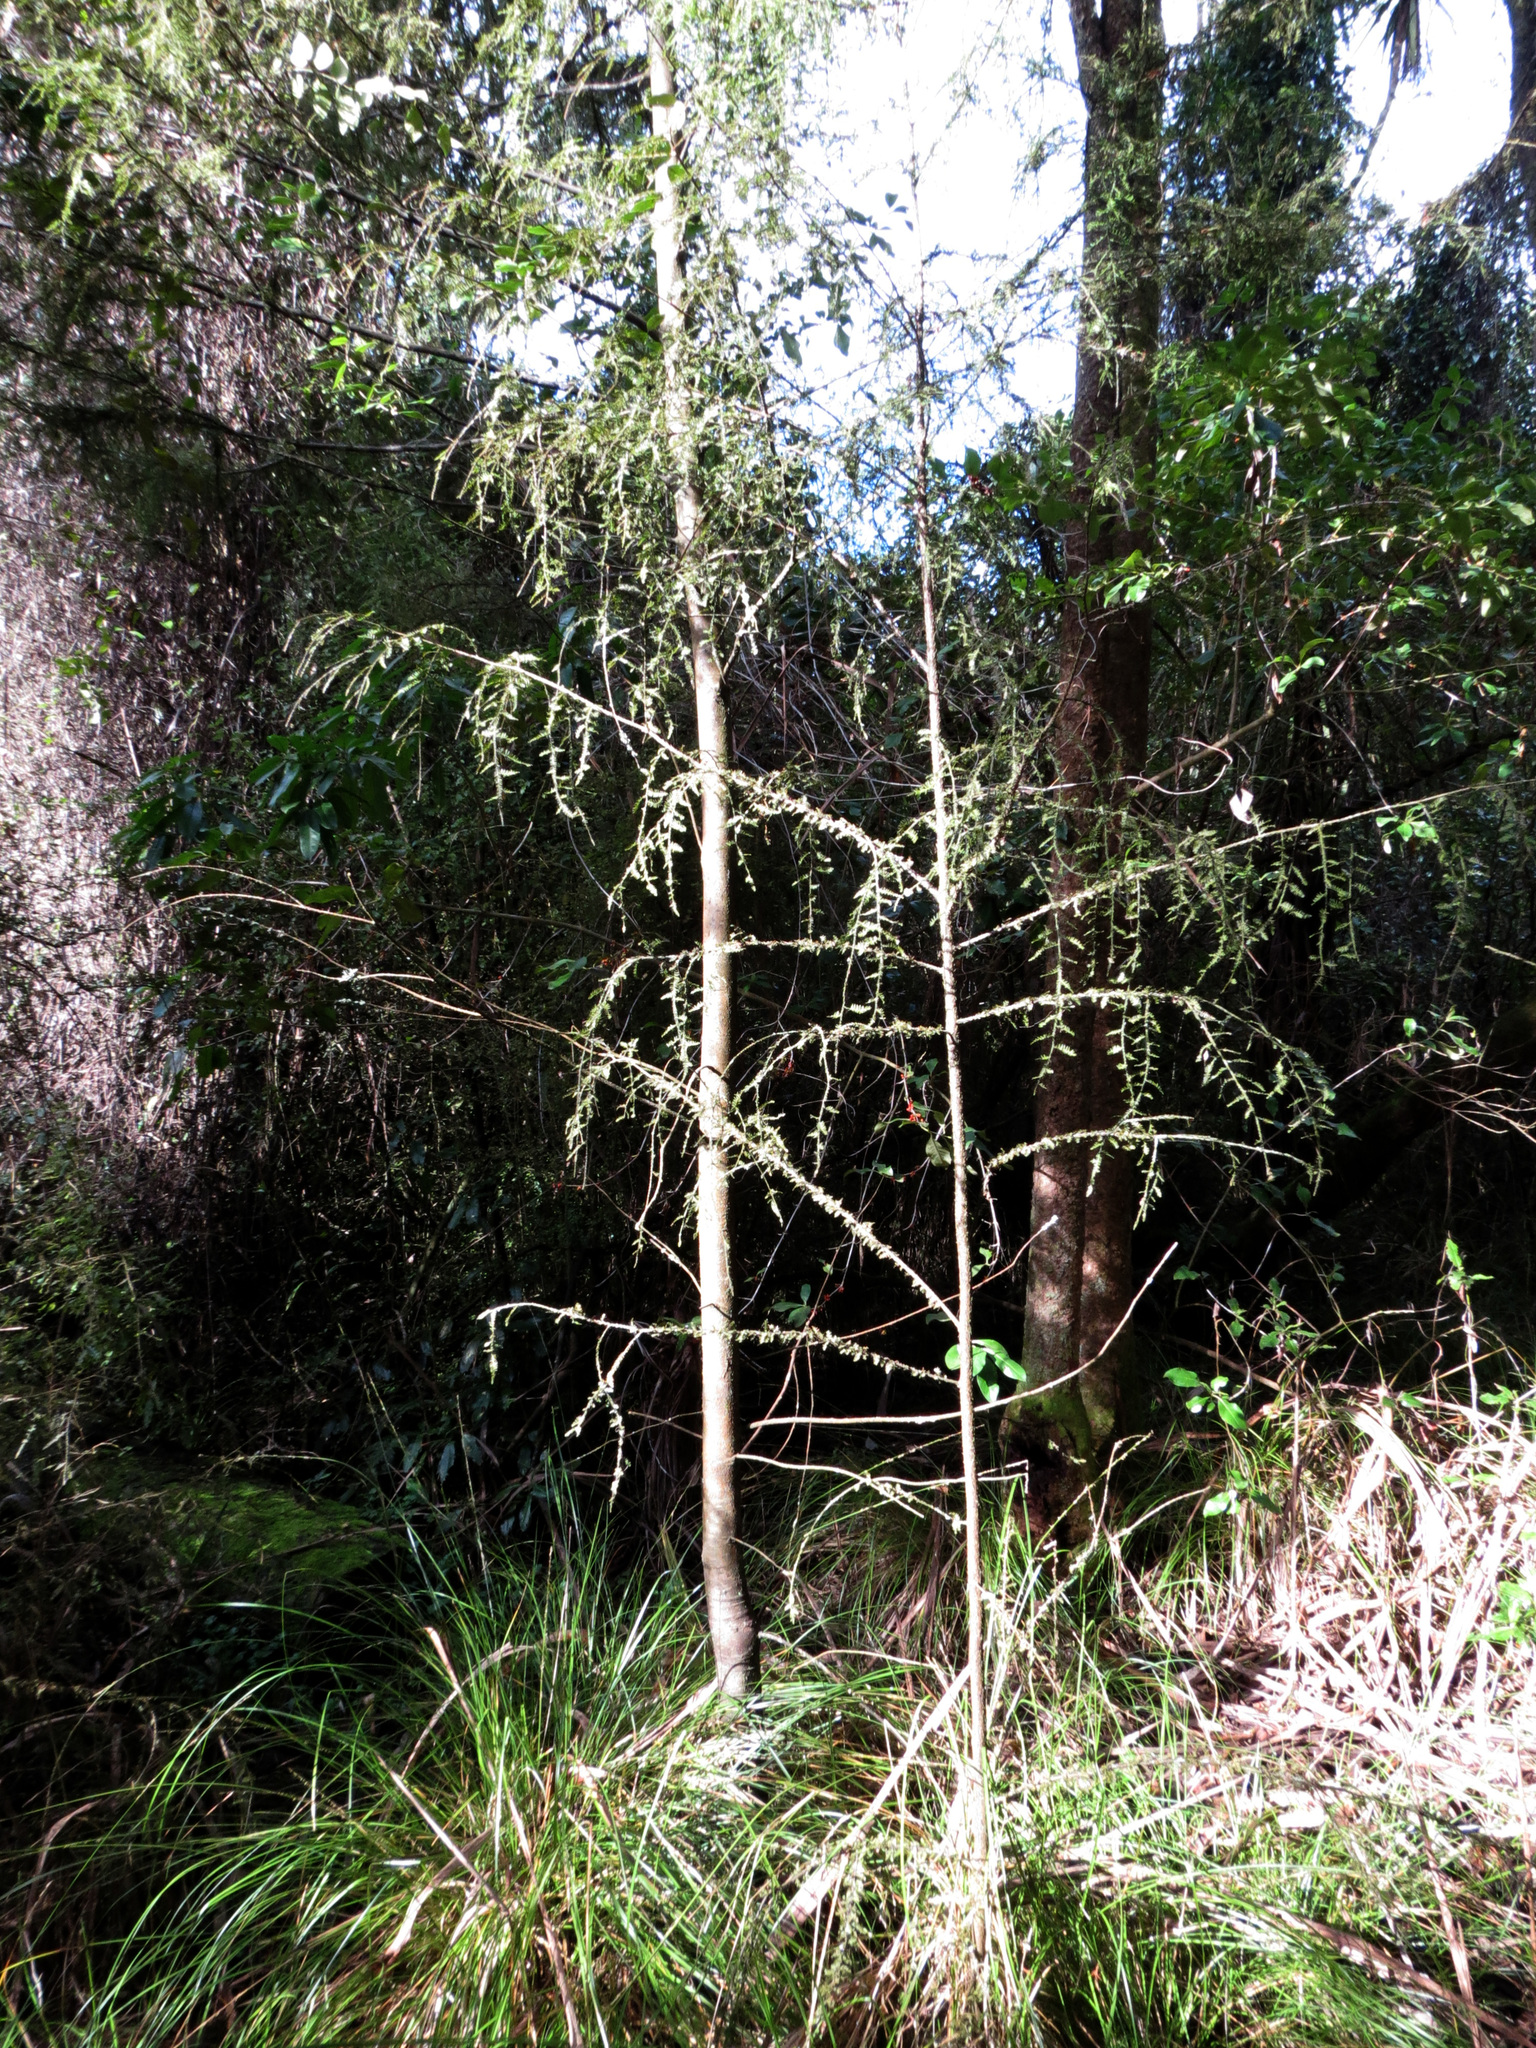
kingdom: Plantae
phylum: Tracheophyta
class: Pinopsida
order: Pinales
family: Podocarpaceae
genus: Dacrycarpus
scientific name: Dacrycarpus dacrydioides
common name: White pine
